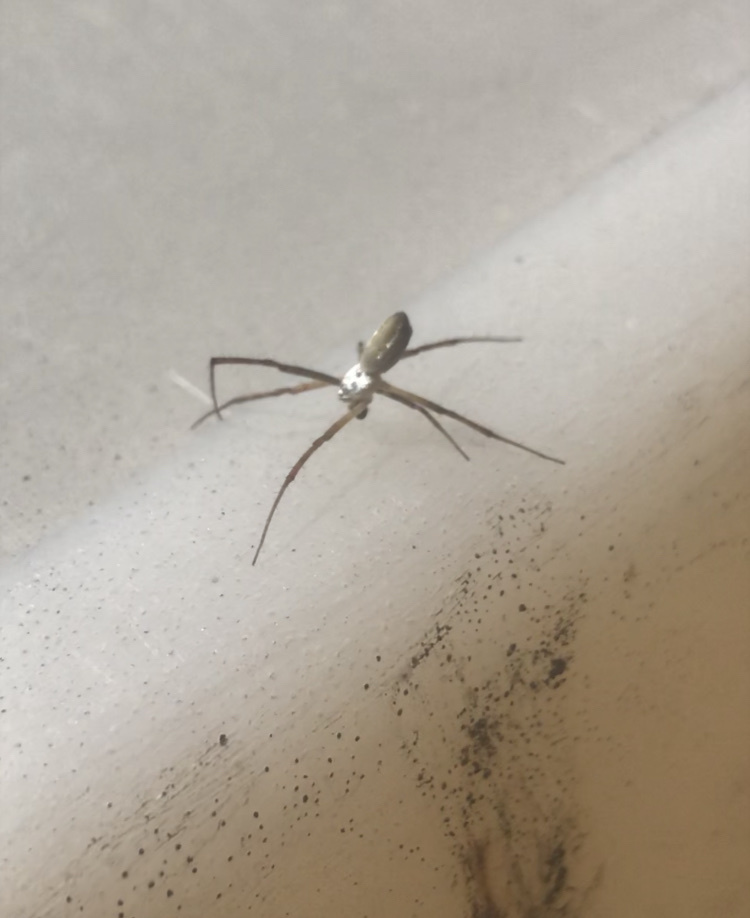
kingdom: Animalia
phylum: Arthropoda
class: Arachnida
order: Araneae
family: Araneidae
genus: Argiope
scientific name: Argiope trifasciata
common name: Banded garden spider
